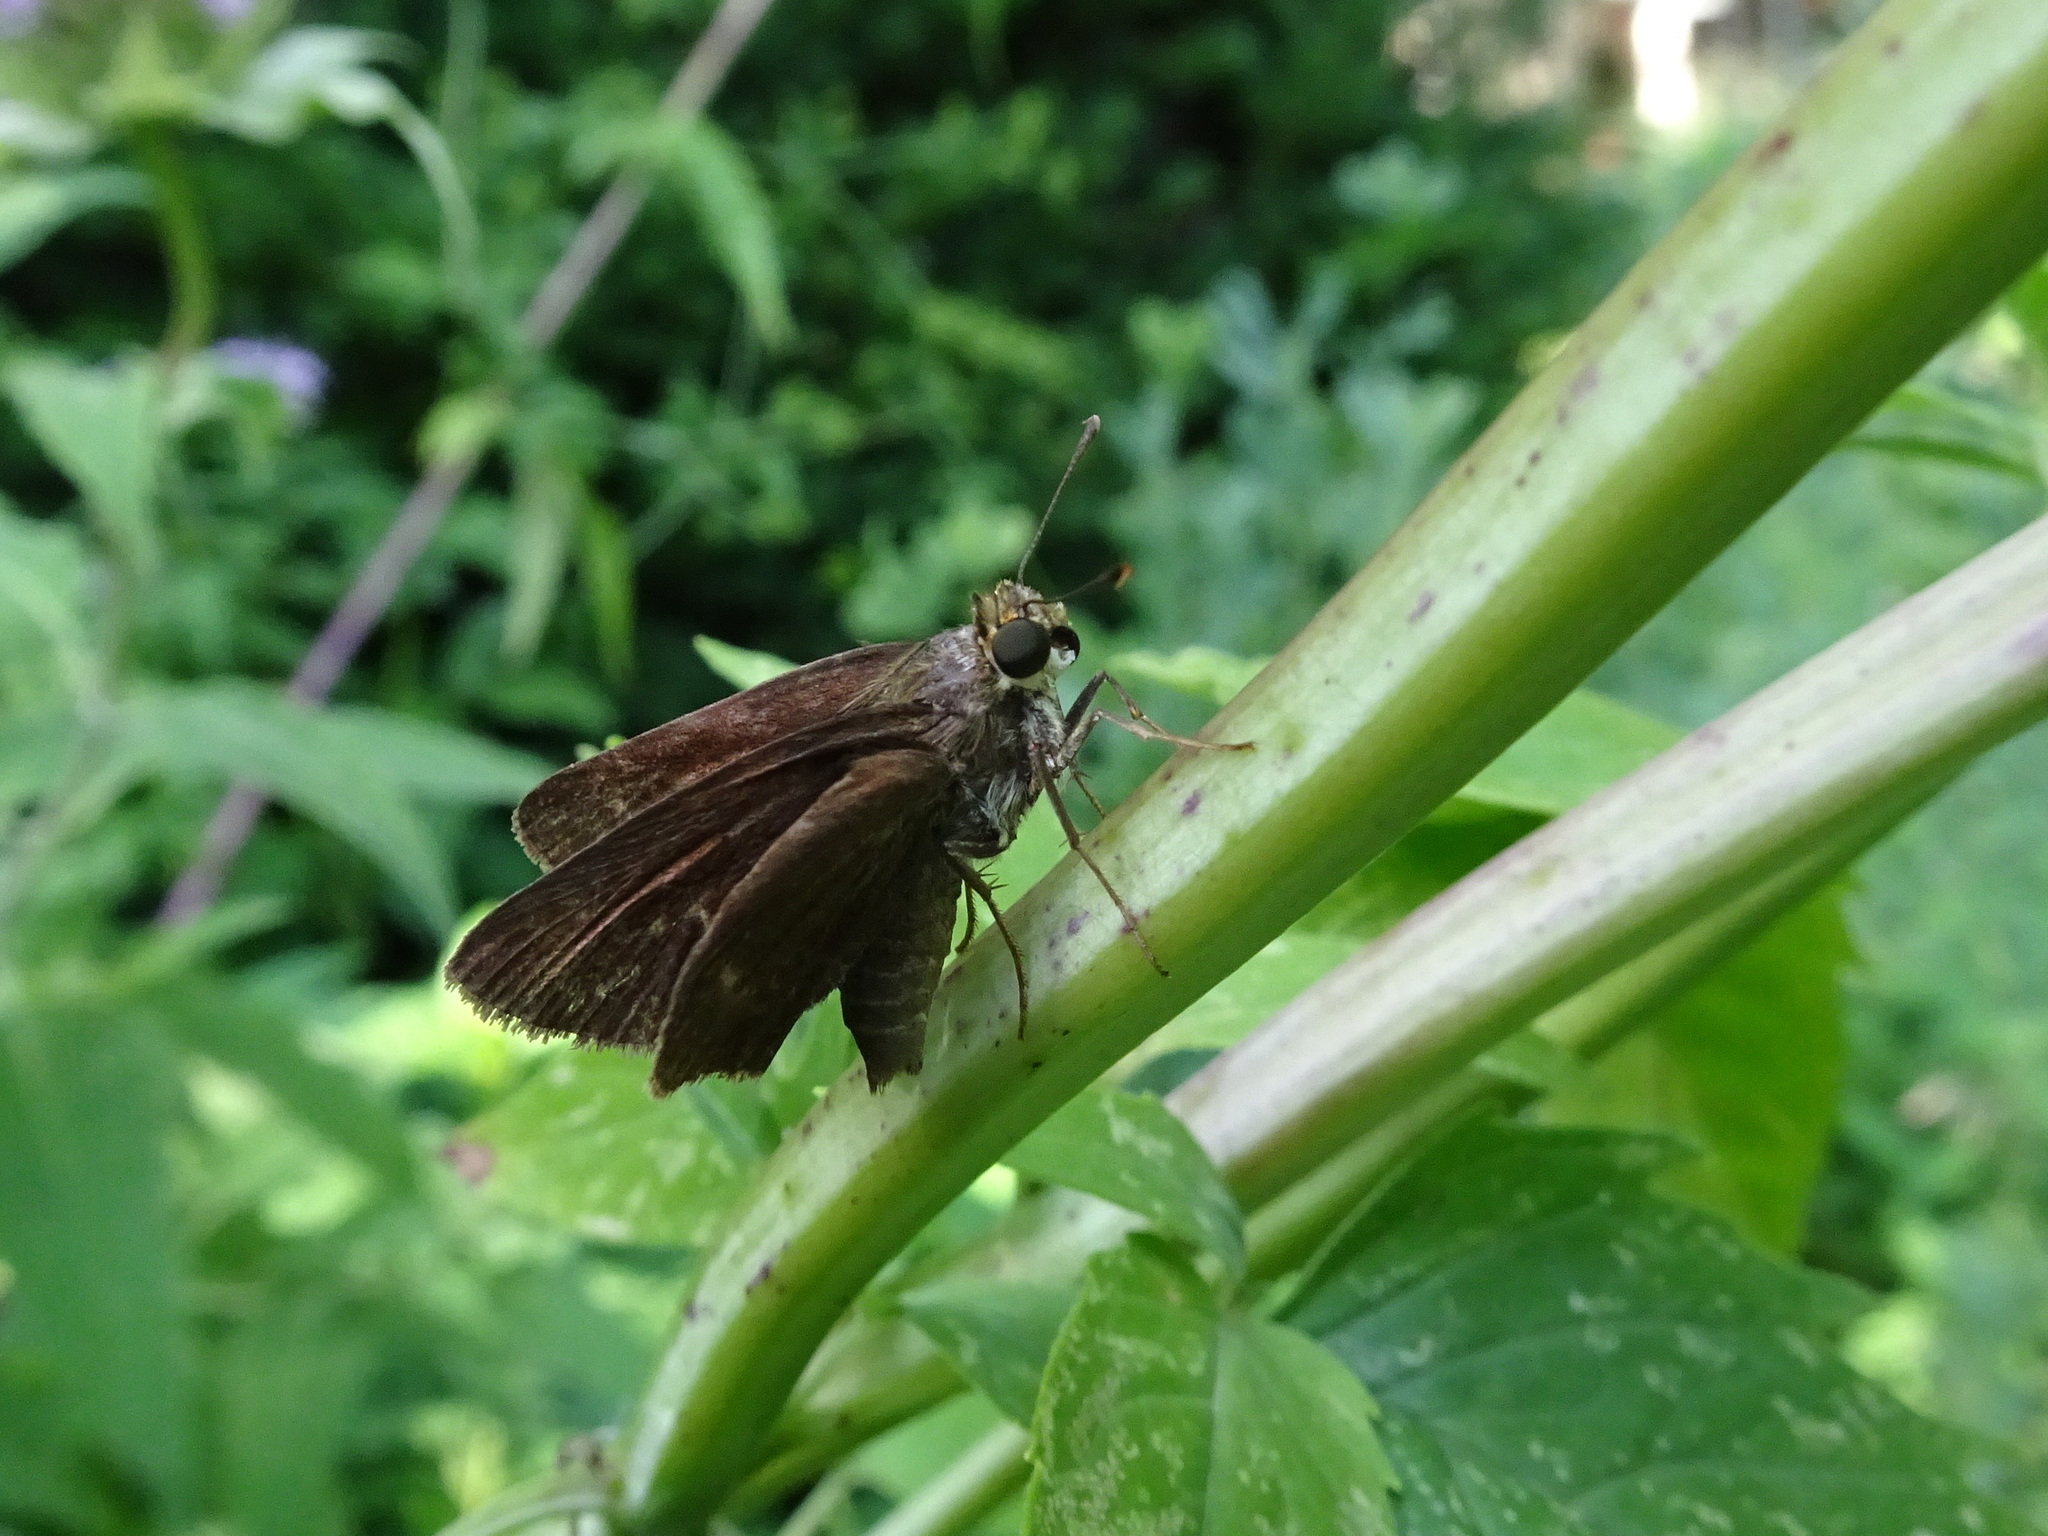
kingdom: Animalia
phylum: Arthropoda
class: Insecta
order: Lepidoptera
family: Hesperiidae
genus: Euphyes
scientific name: Euphyes vestris
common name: Dun skipper
